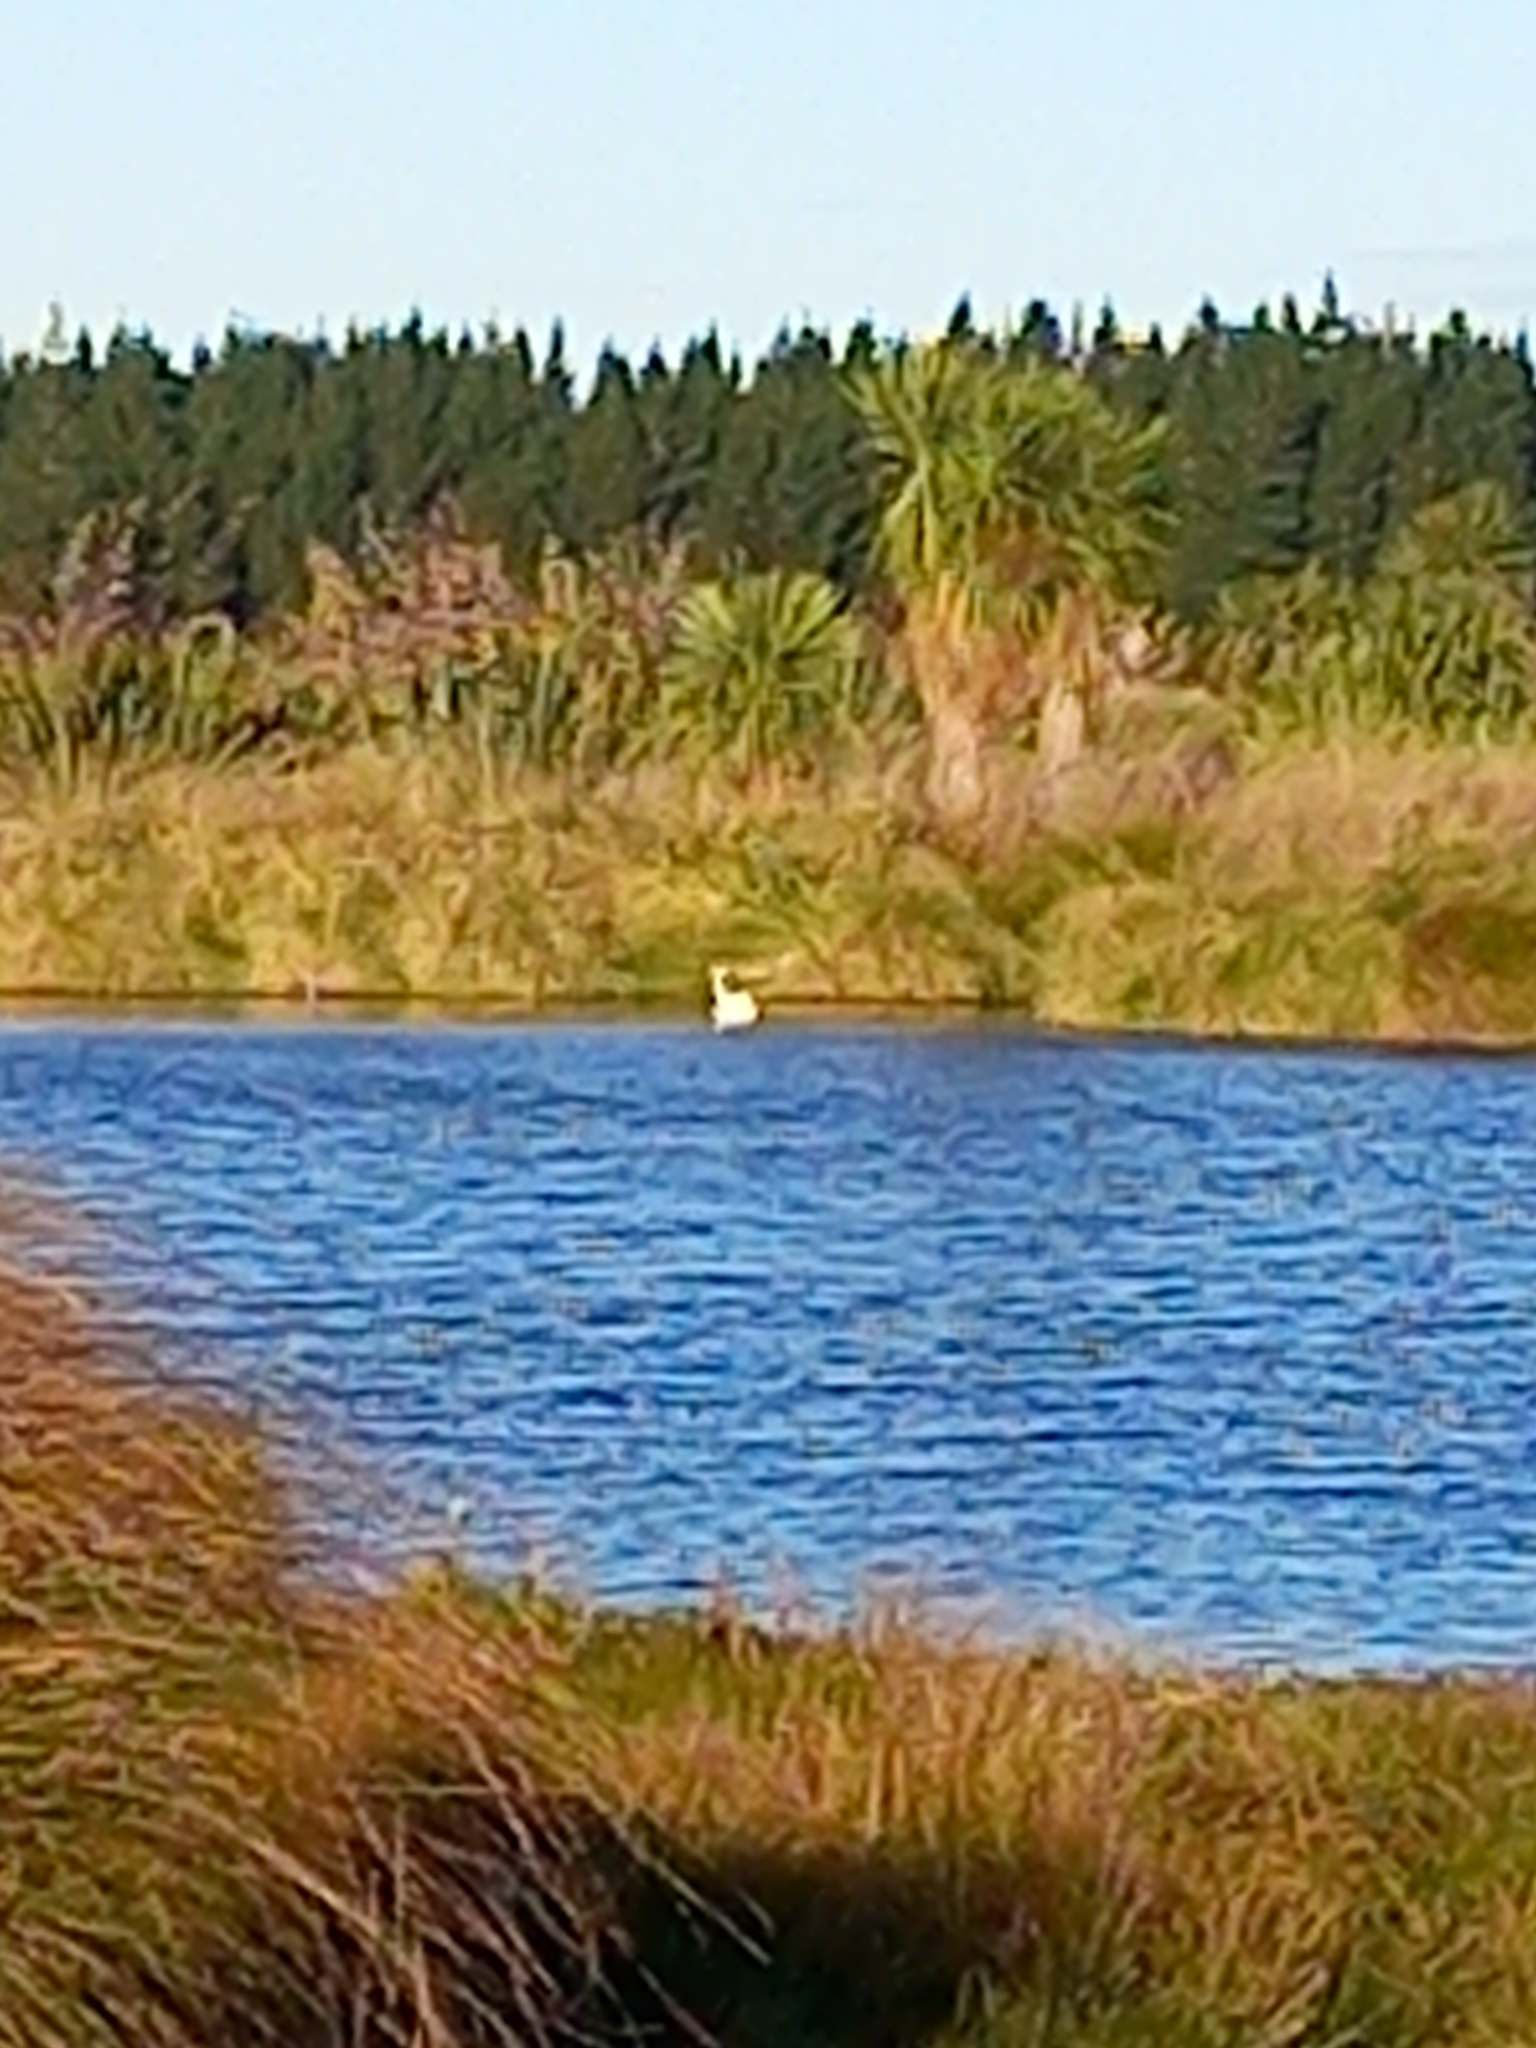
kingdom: Animalia
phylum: Chordata
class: Aves
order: Anseriformes
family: Anatidae
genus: Cygnus
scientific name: Cygnus olor
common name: Mute swan
